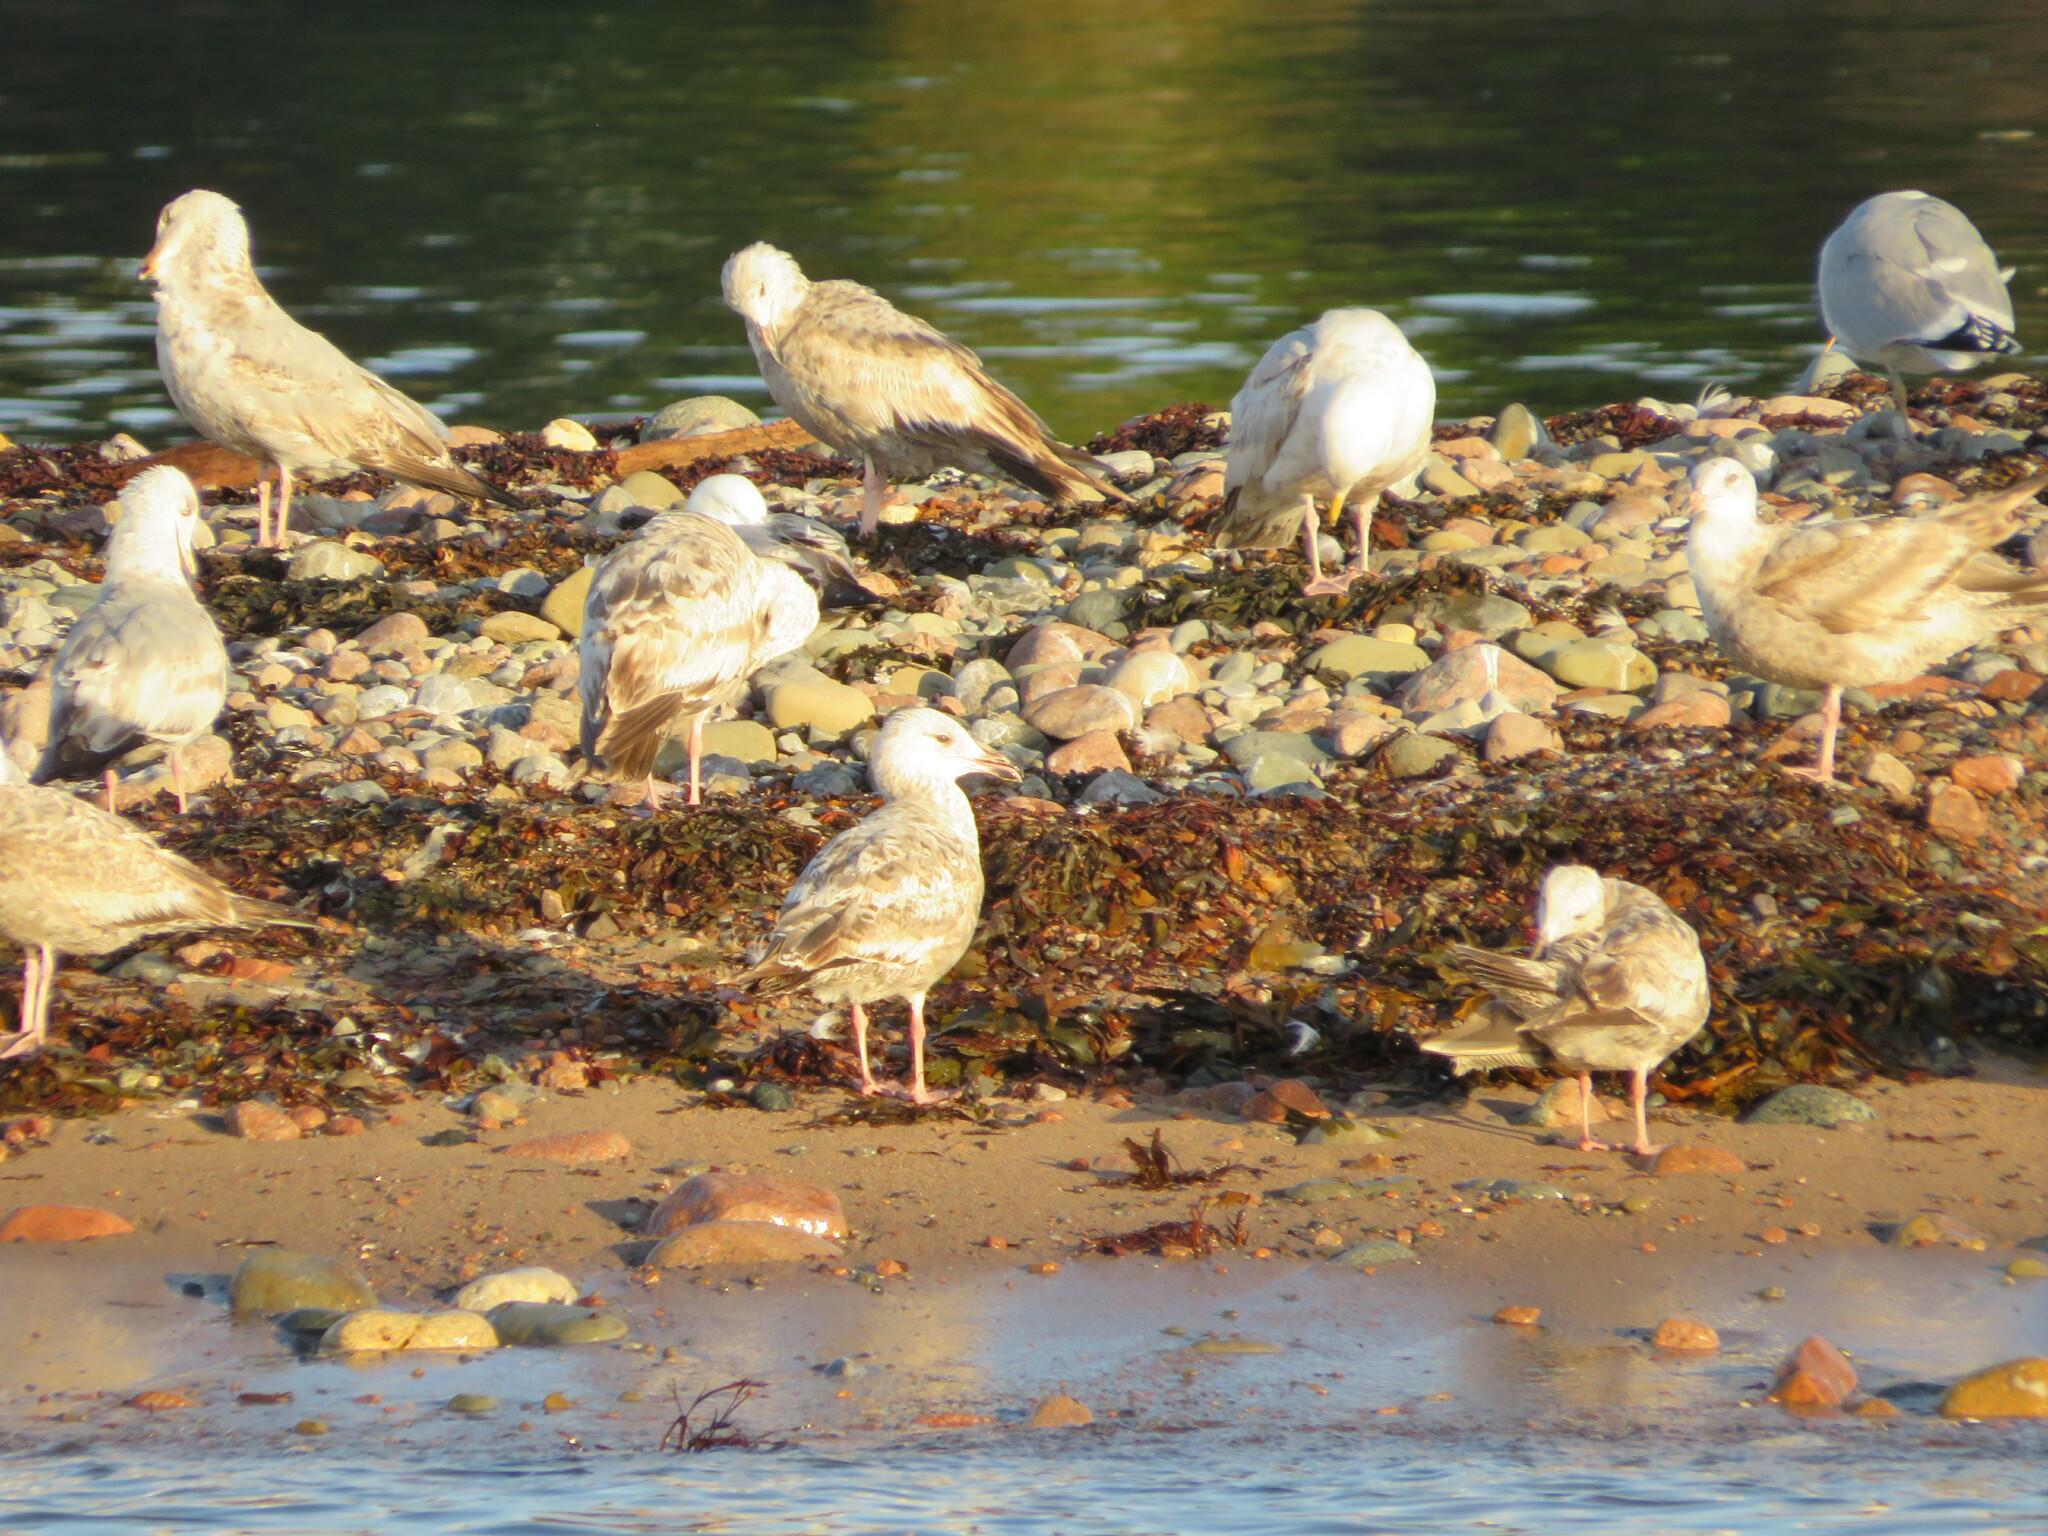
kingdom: Animalia
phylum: Chordata
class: Aves
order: Charadriiformes
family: Laridae
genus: Larus
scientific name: Larus argentatus
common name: Herring gull
